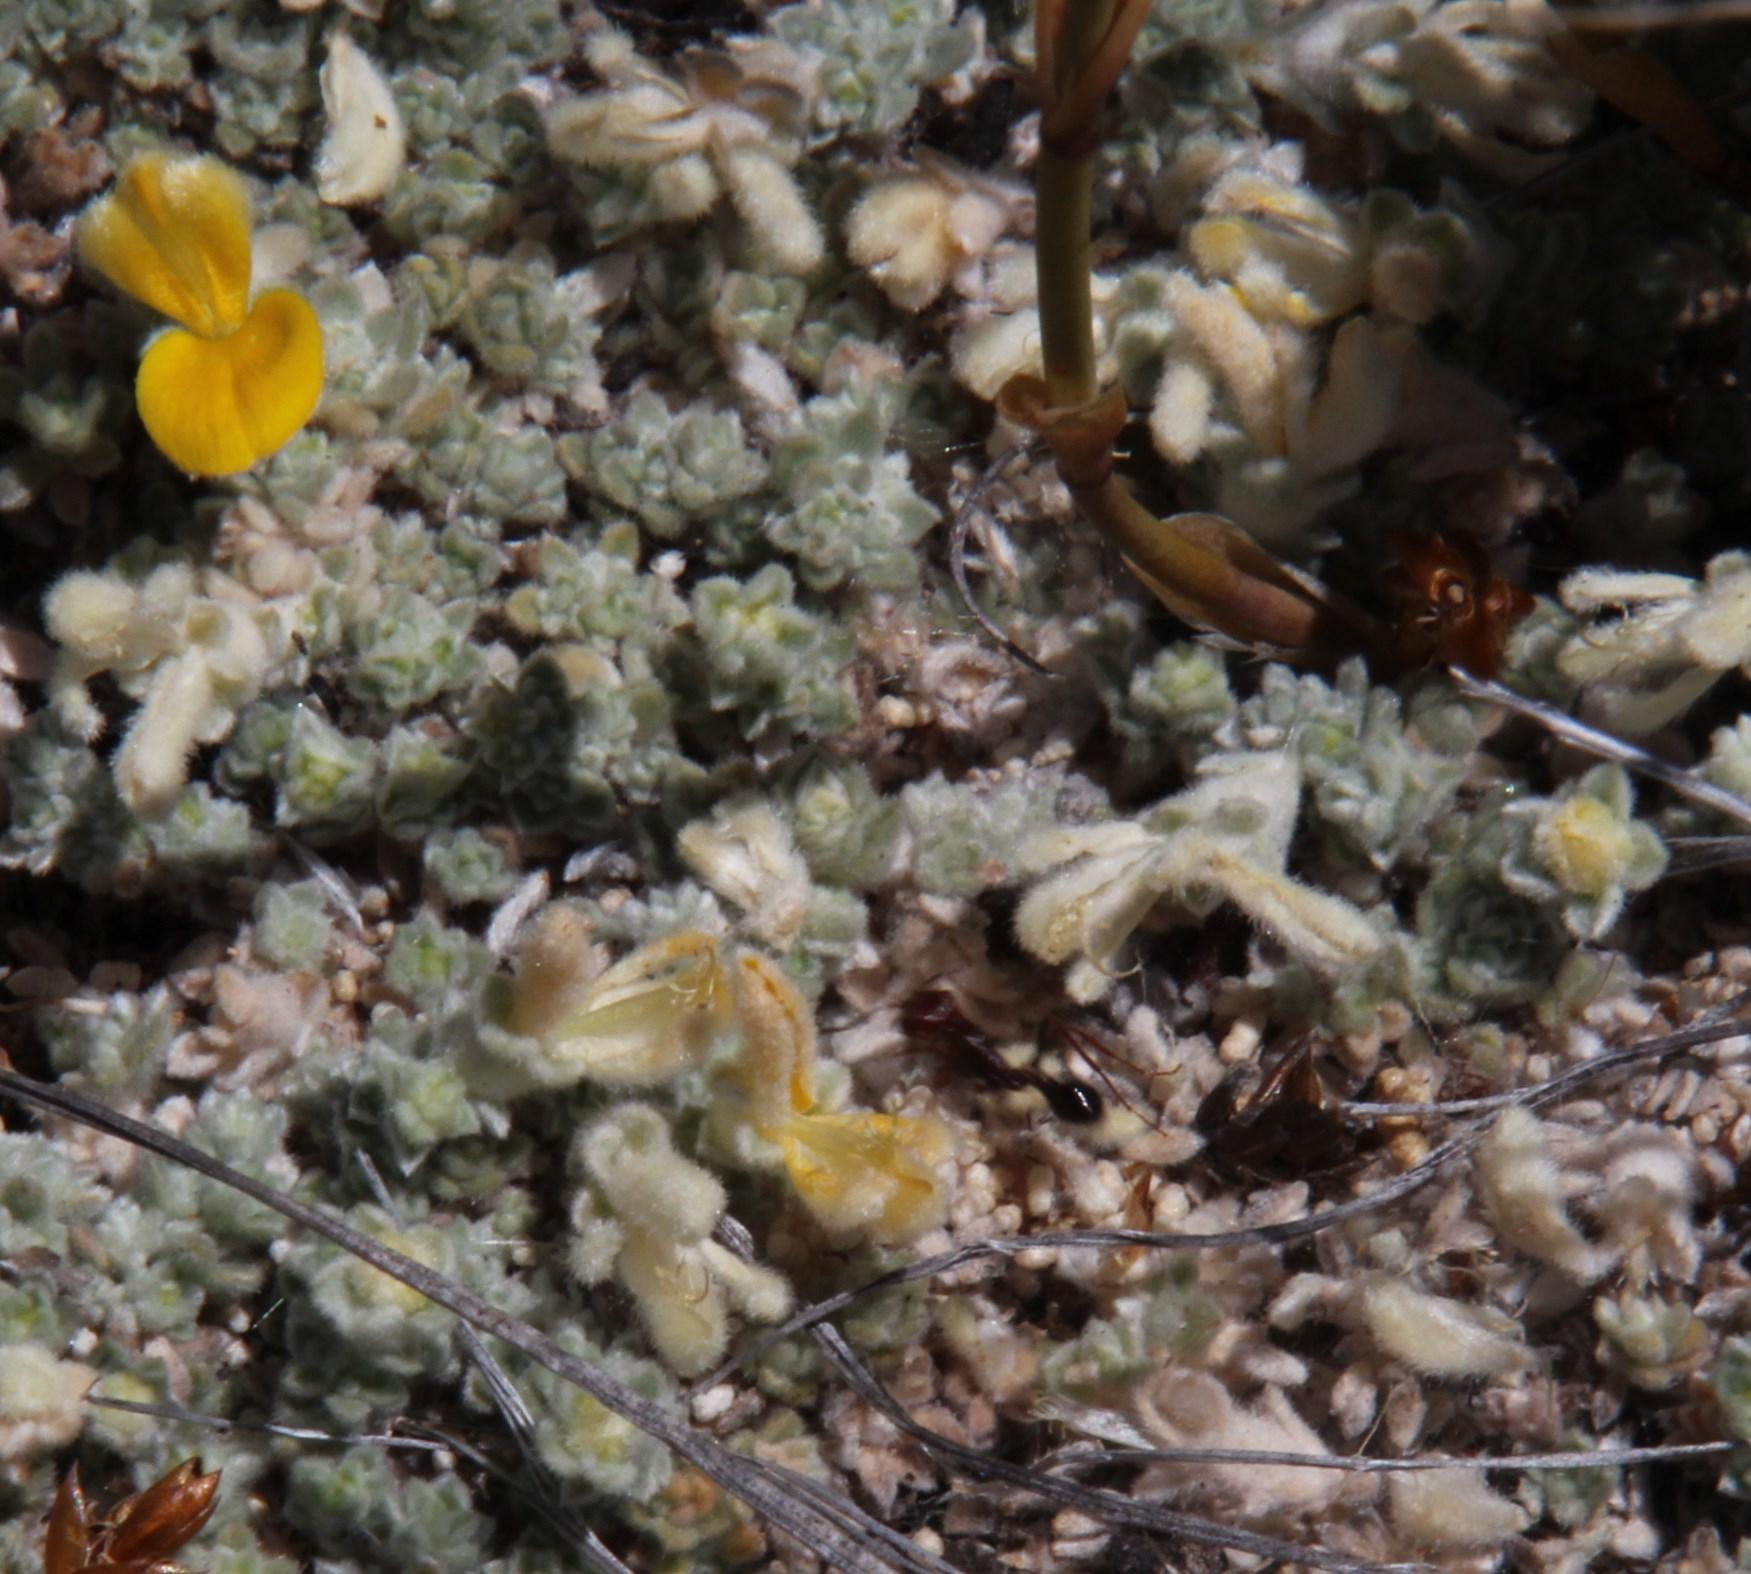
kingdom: Animalia
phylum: Arthropoda
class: Insecta
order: Hymenoptera
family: Formicidae
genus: Ocymyrmex
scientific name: Ocymyrmex barbiger
